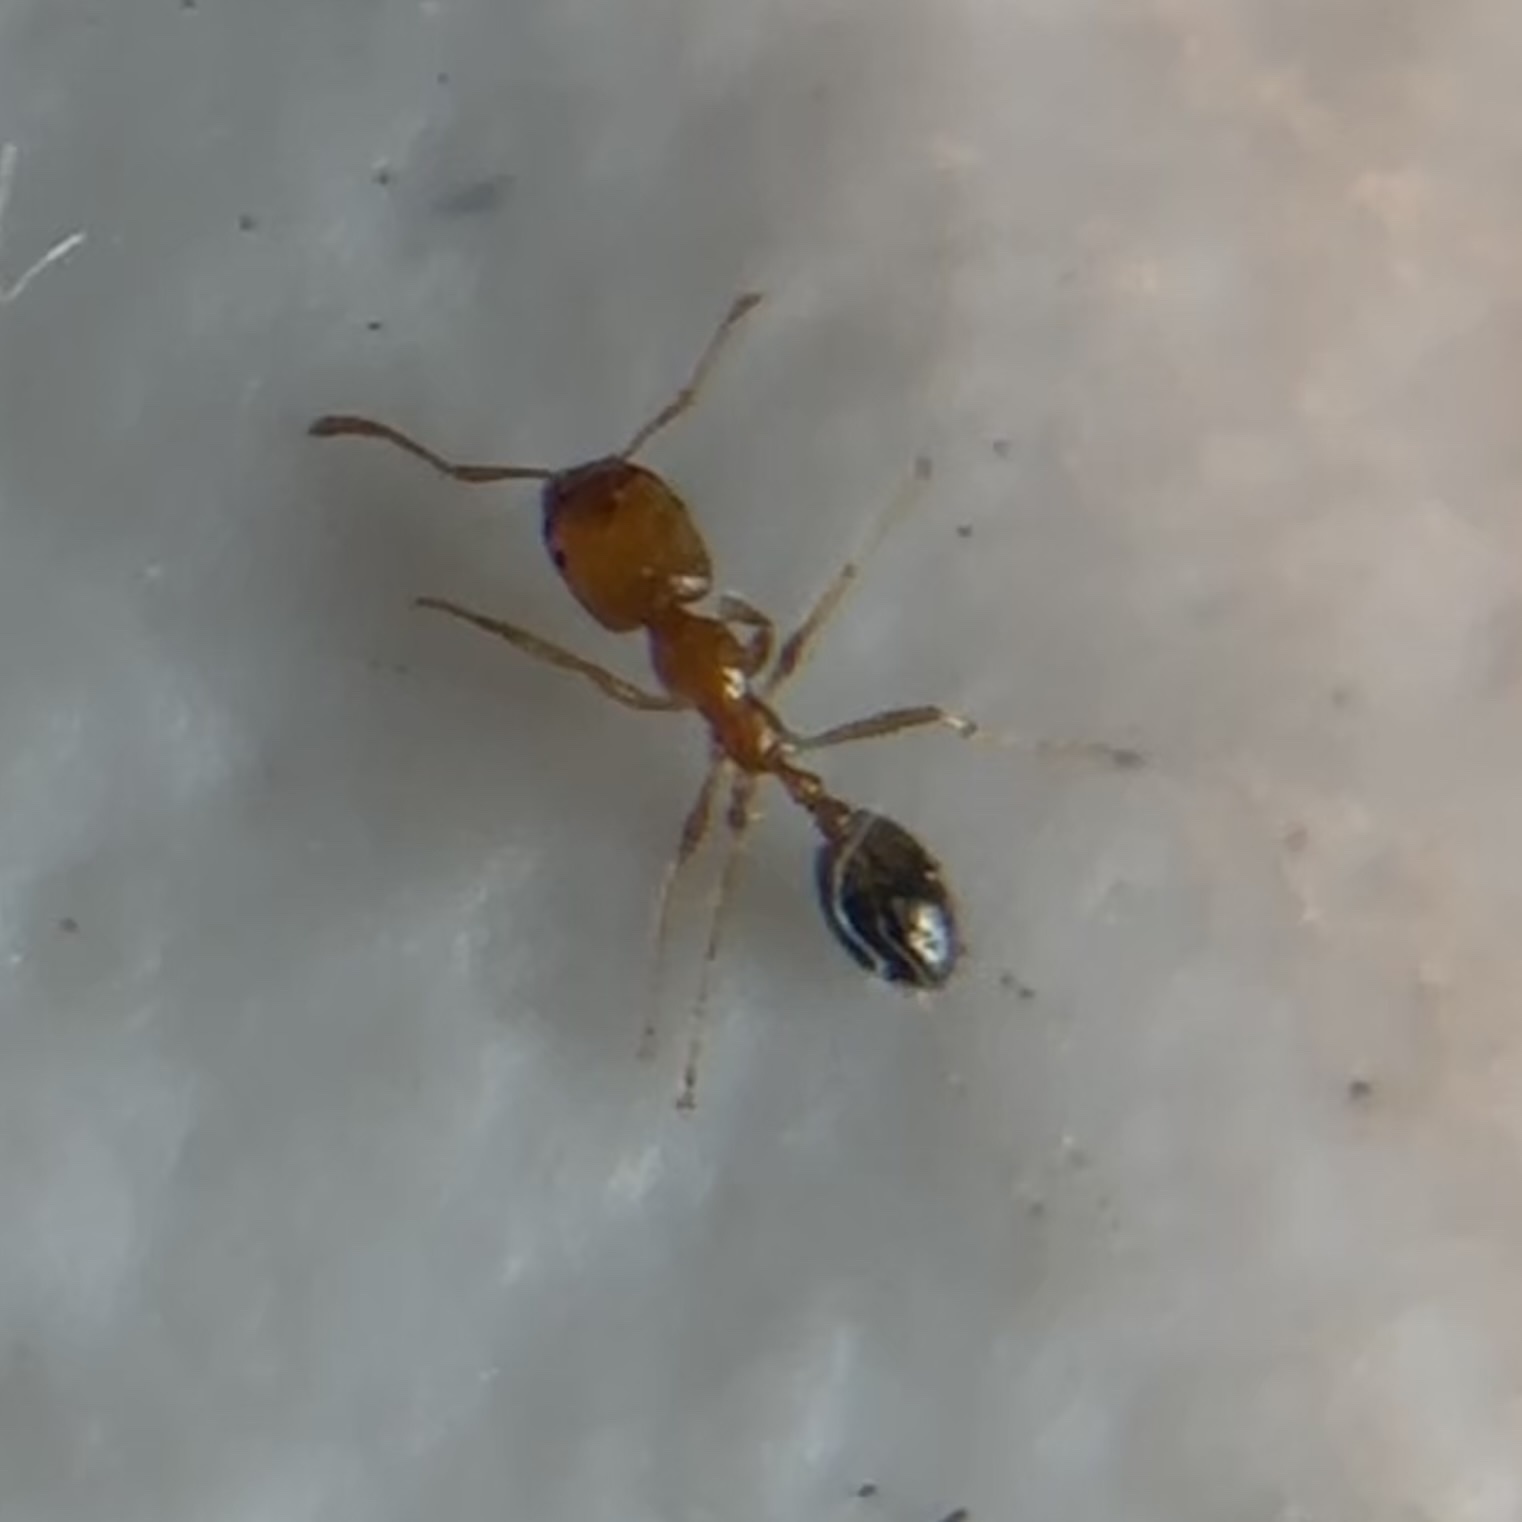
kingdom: Animalia
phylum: Arthropoda
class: Insecta
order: Hymenoptera
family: Formicidae
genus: Monomorium
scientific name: Monomorium destructor
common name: Destructive trailing ant
